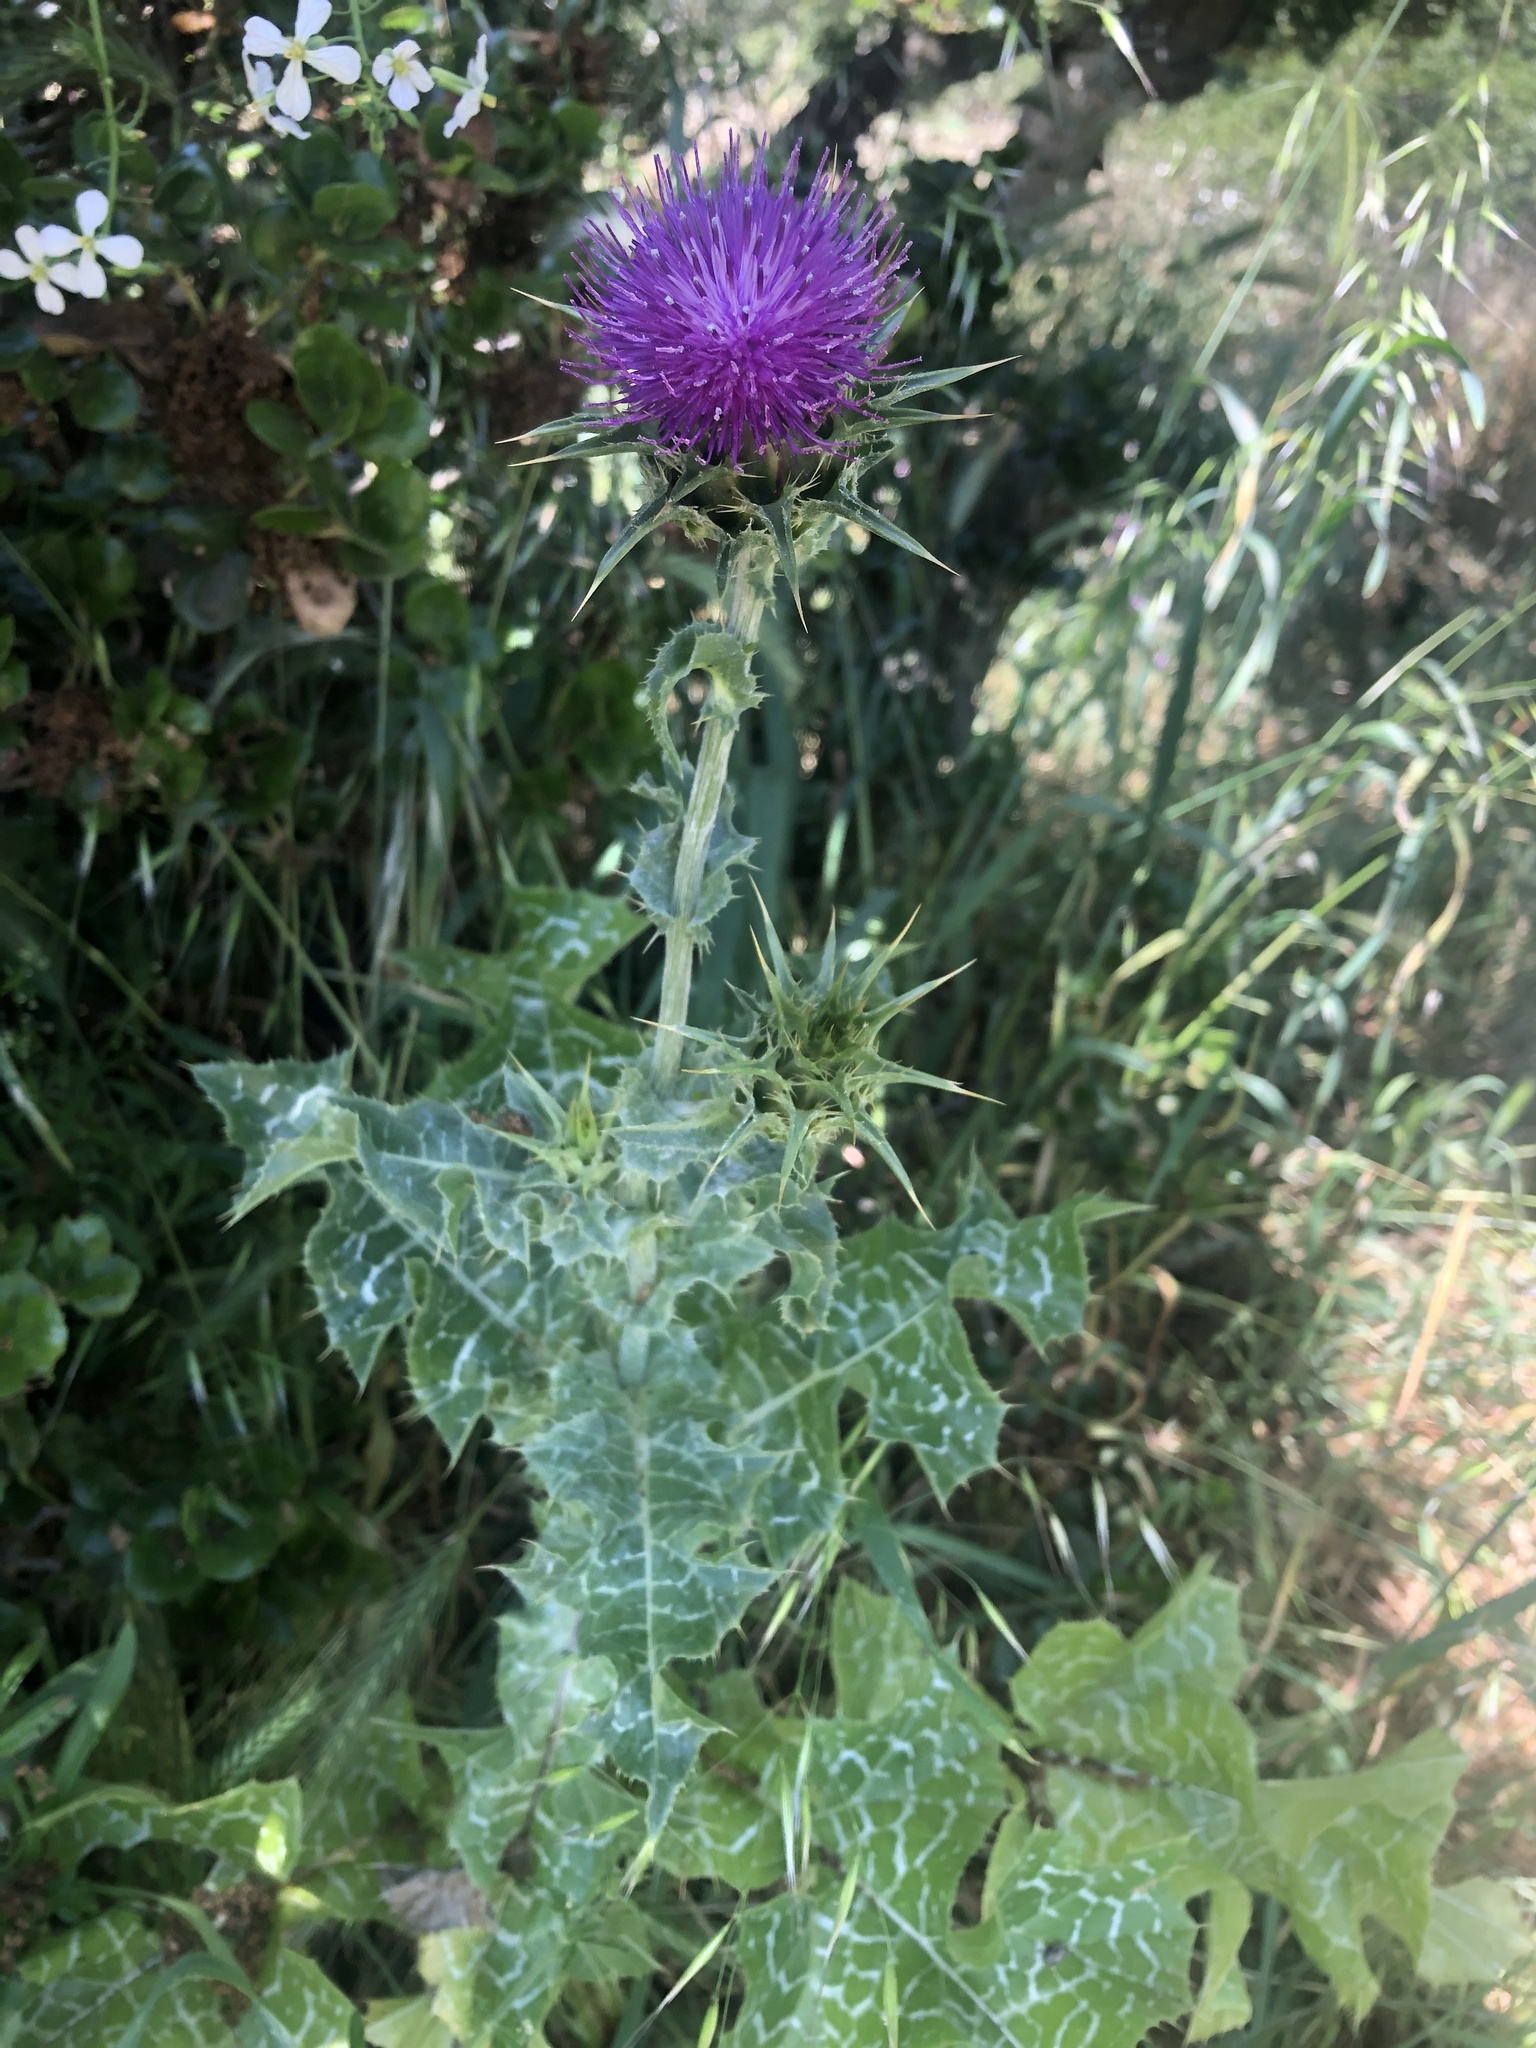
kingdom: Plantae
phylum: Tracheophyta
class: Magnoliopsida
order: Asterales
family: Asteraceae
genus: Silybum
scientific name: Silybum marianum
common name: Milk thistle
